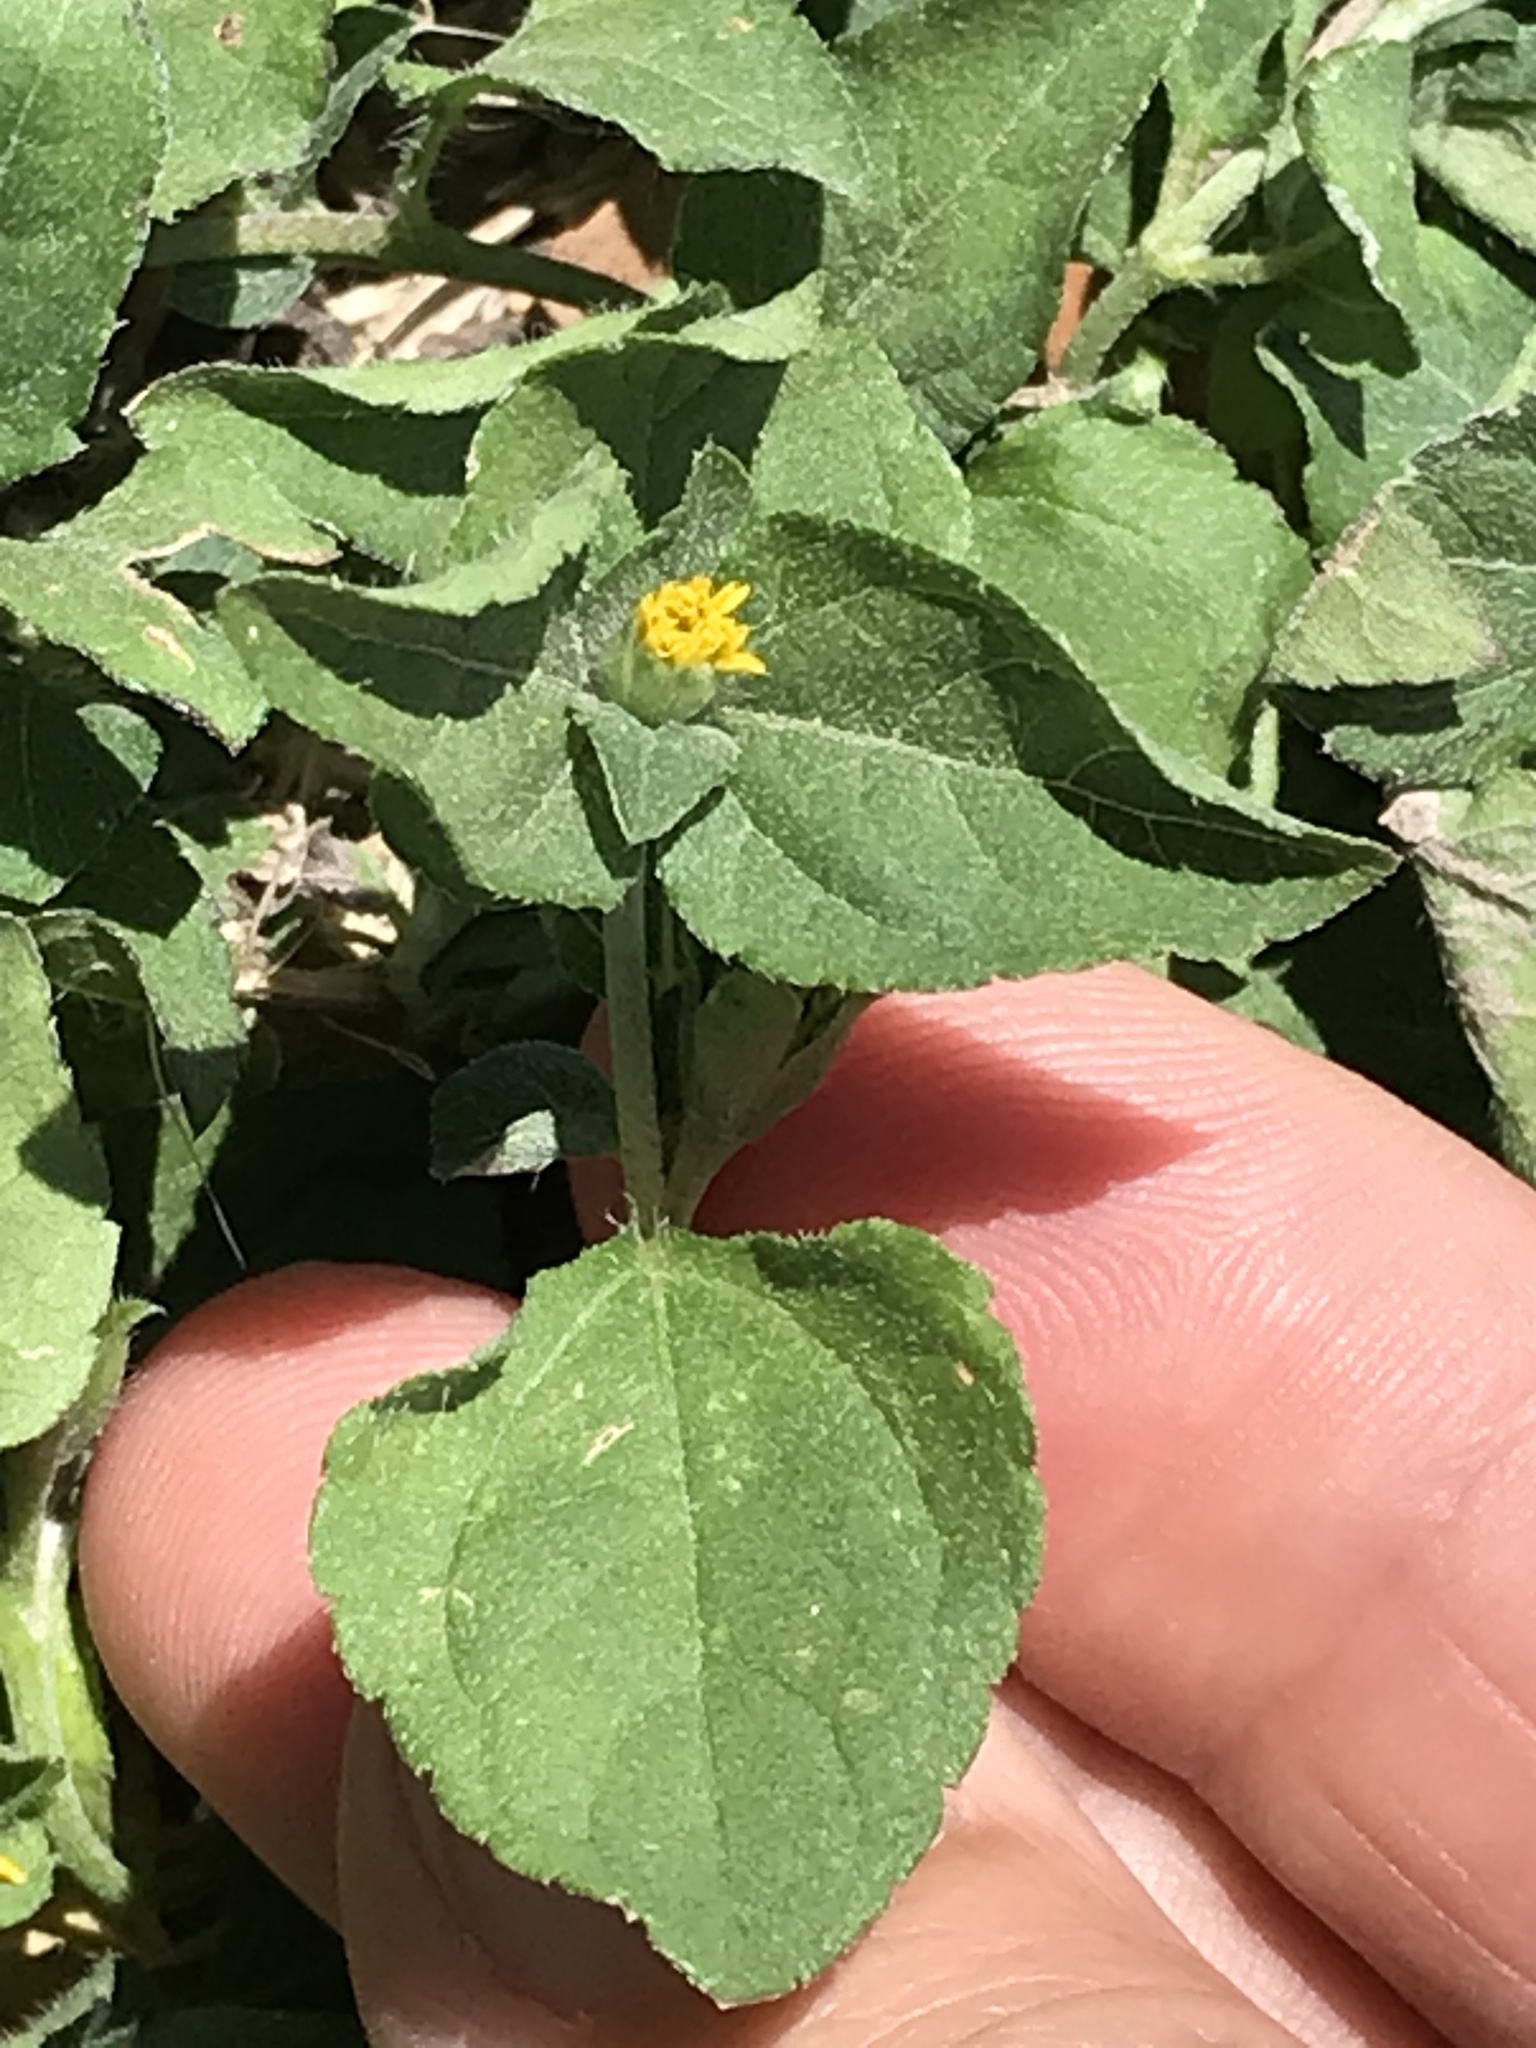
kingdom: Plantae
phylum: Tracheophyta
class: Magnoliopsida
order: Asterales
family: Asteraceae
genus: Calyptocarpus
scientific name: Calyptocarpus vialis
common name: Straggler daisy
